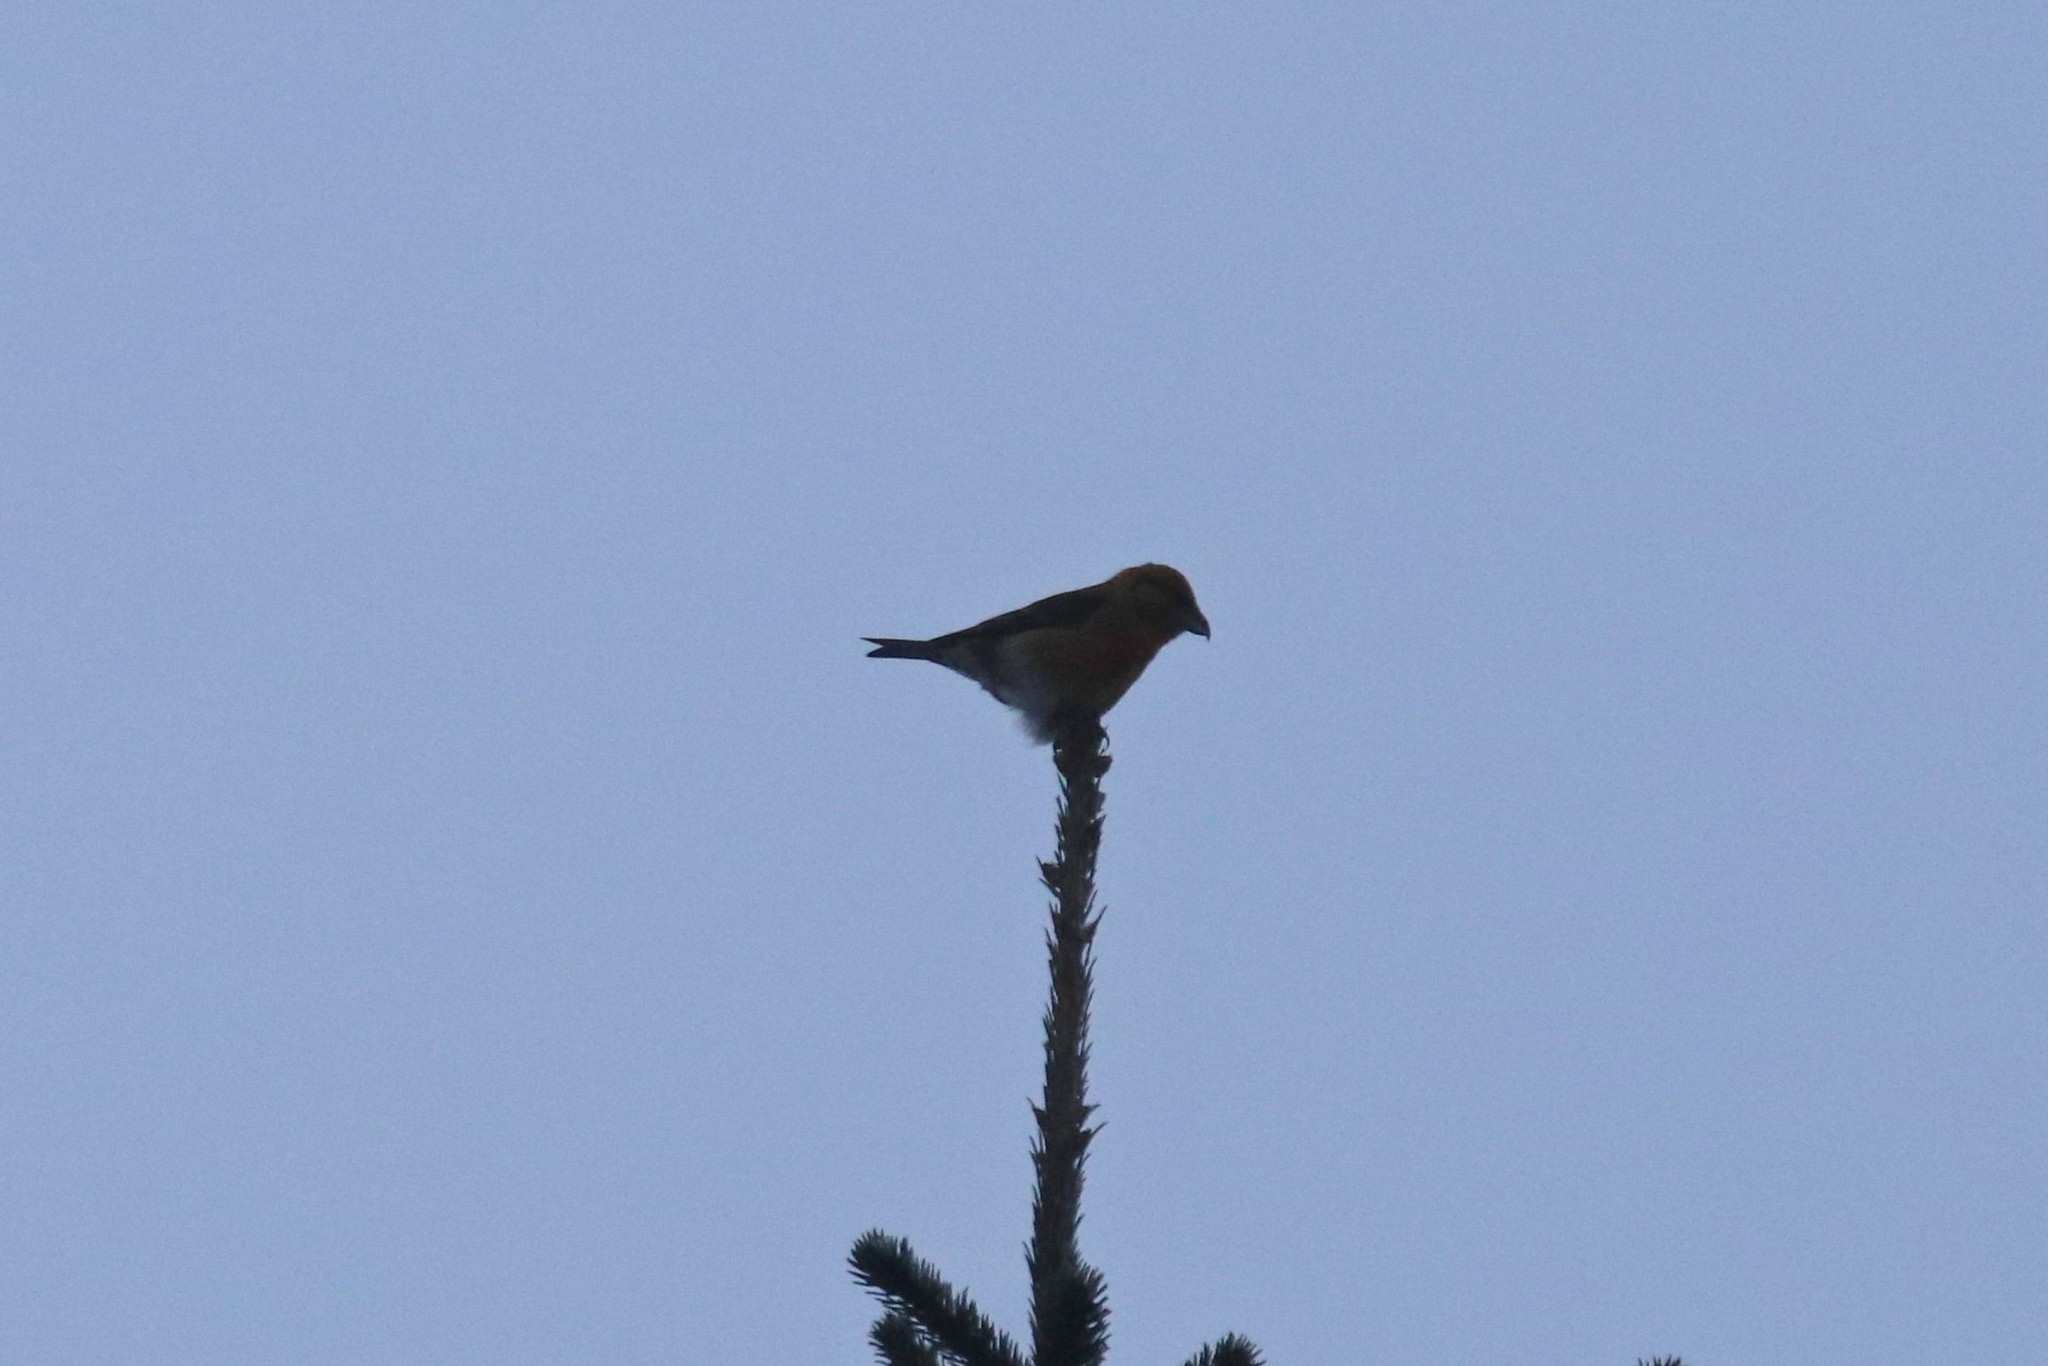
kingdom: Animalia
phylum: Chordata
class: Aves
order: Passeriformes
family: Fringillidae
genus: Loxia
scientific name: Loxia curvirostra
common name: Red crossbill
